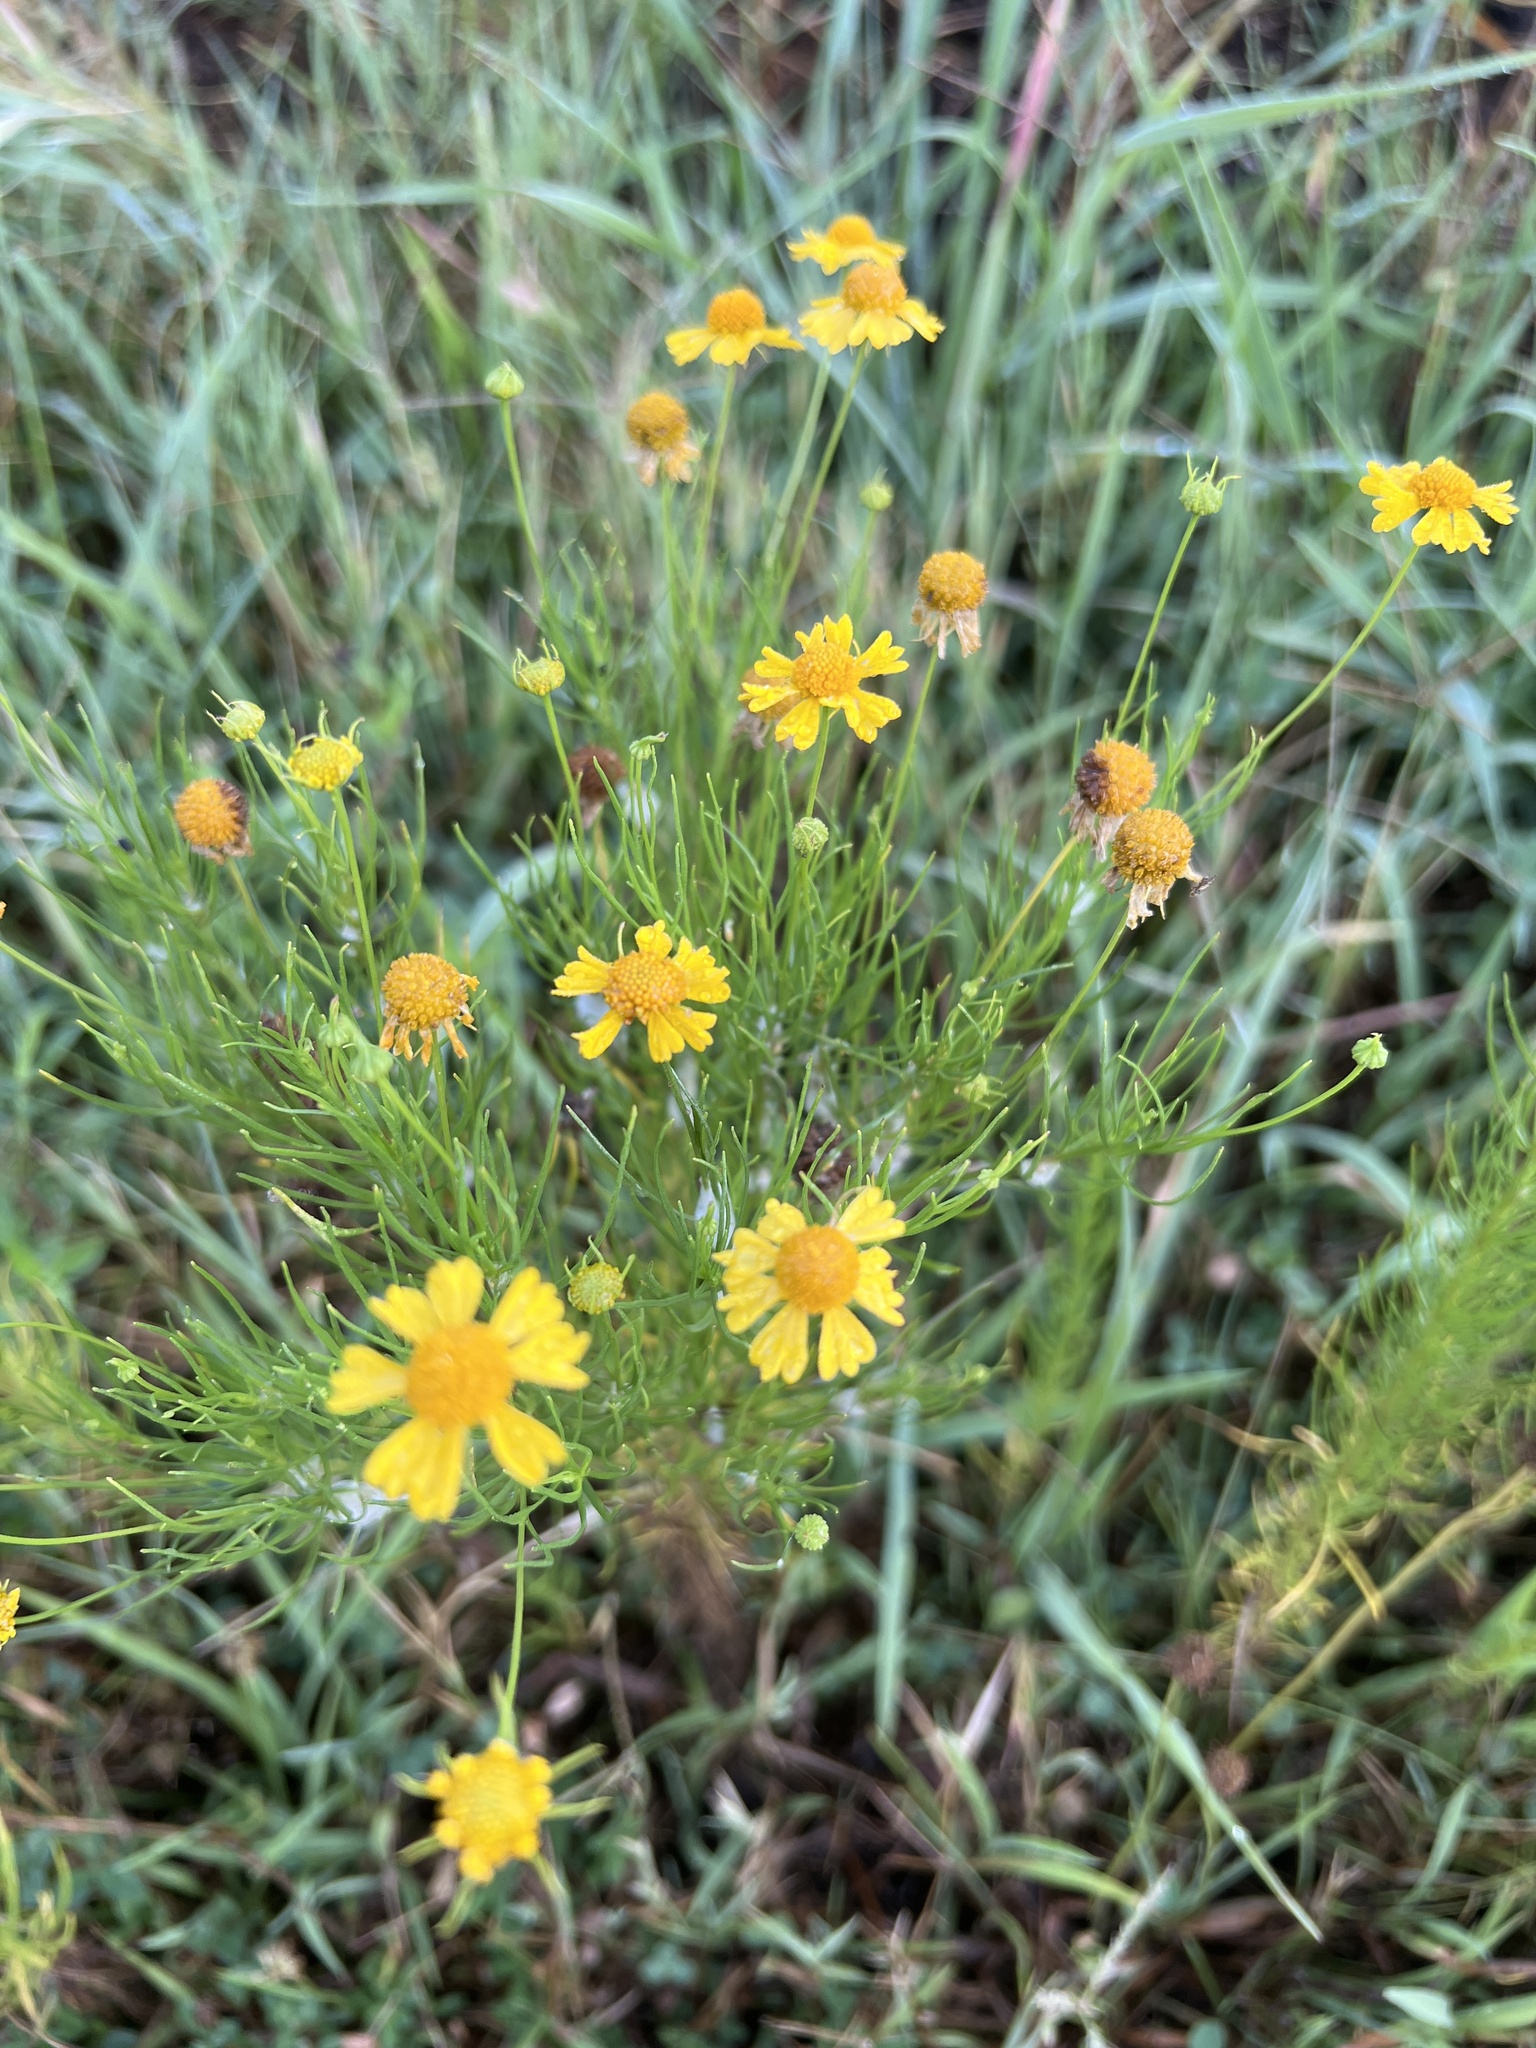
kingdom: Plantae
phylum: Tracheophyta
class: Magnoliopsida
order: Asterales
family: Asteraceae
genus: Helenium
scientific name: Helenium amarum
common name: Bitter sneezeweed
